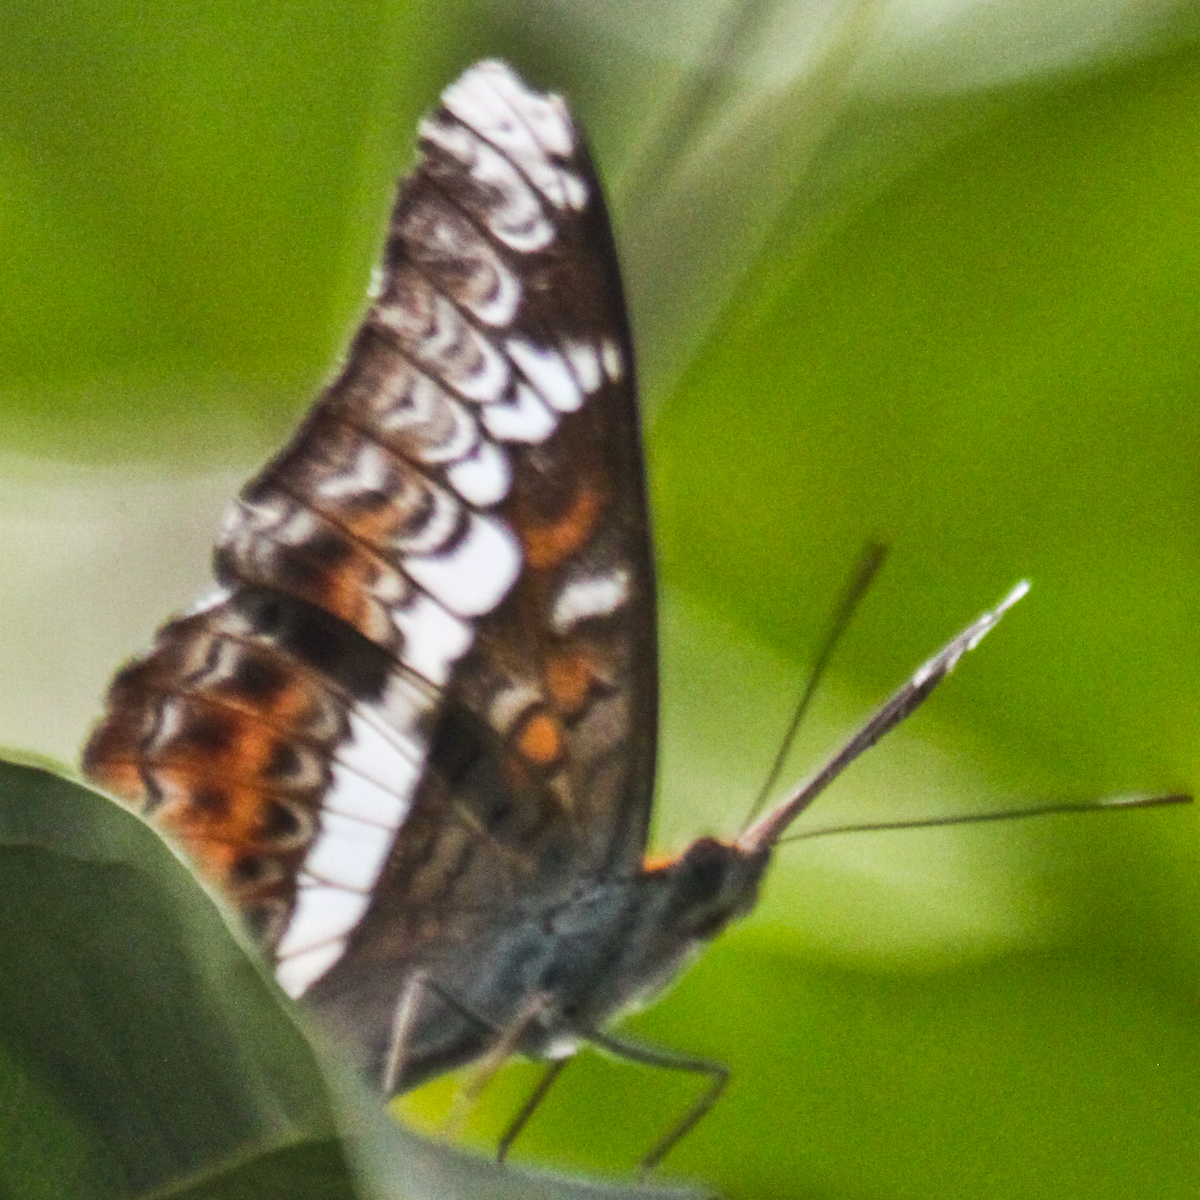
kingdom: Animalia
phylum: Arthropoda
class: Insecta
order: Lepidoptera
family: Nymphalidae
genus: Lebadea
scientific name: Lebadea martha
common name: Knight
